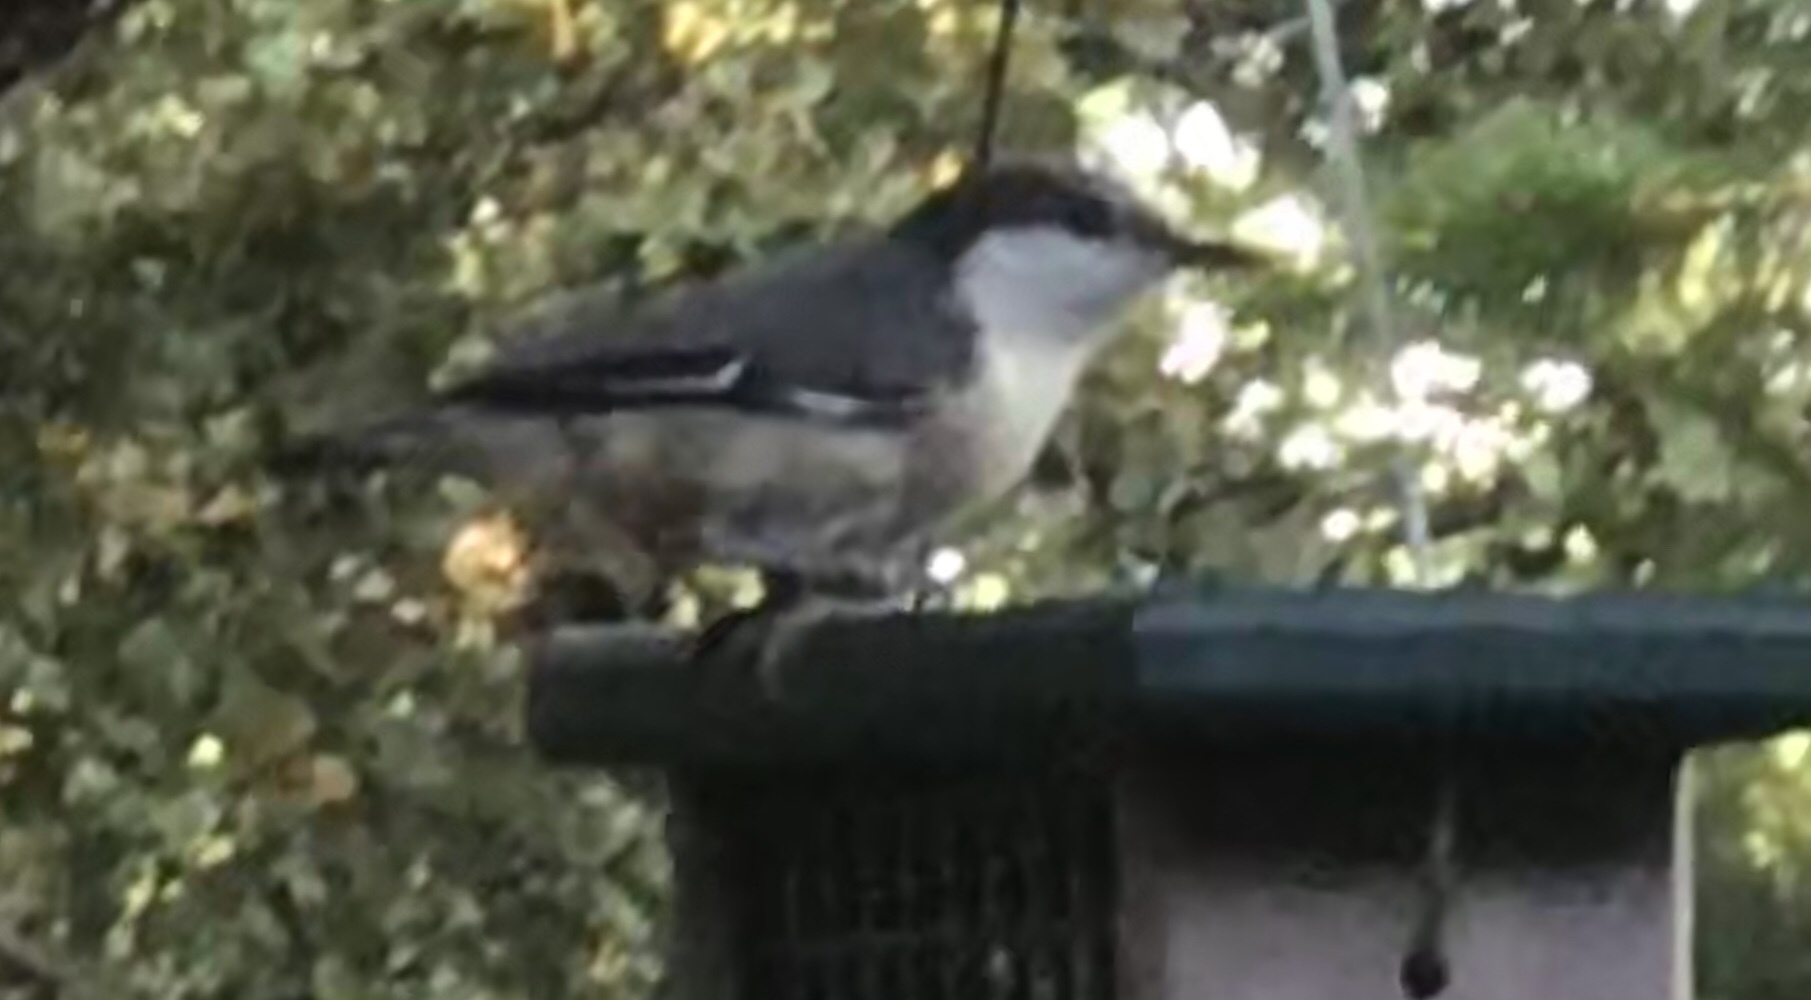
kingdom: Animalia
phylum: Chordata
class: Aves
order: Passeriformes
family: Sittidae
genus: Sitta
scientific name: Sitta pygmaea
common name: Pygmy nuthatch
